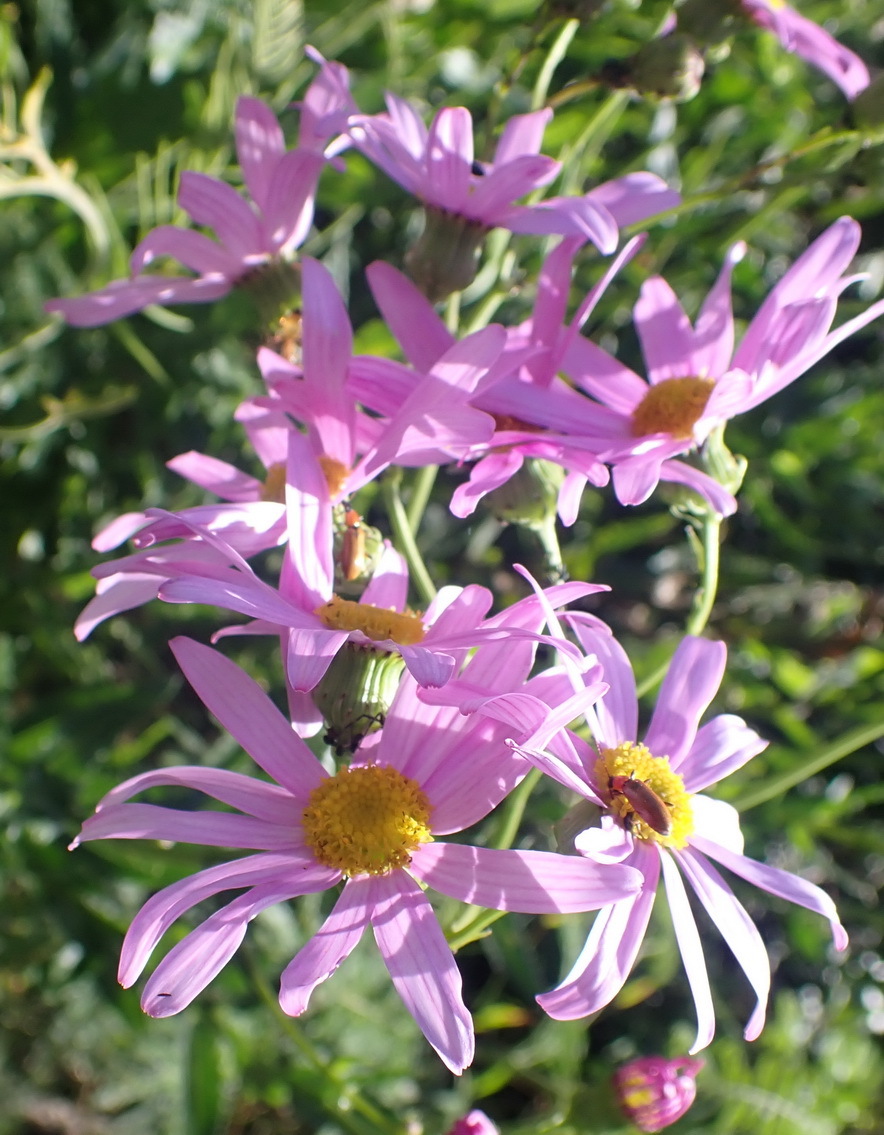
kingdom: Plantae
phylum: Tracheophyta
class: Magnoliopsida
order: Asterales
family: Asteraceae
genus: Senecio
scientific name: Senecio glastifolius
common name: Woad-leaved ragwort
